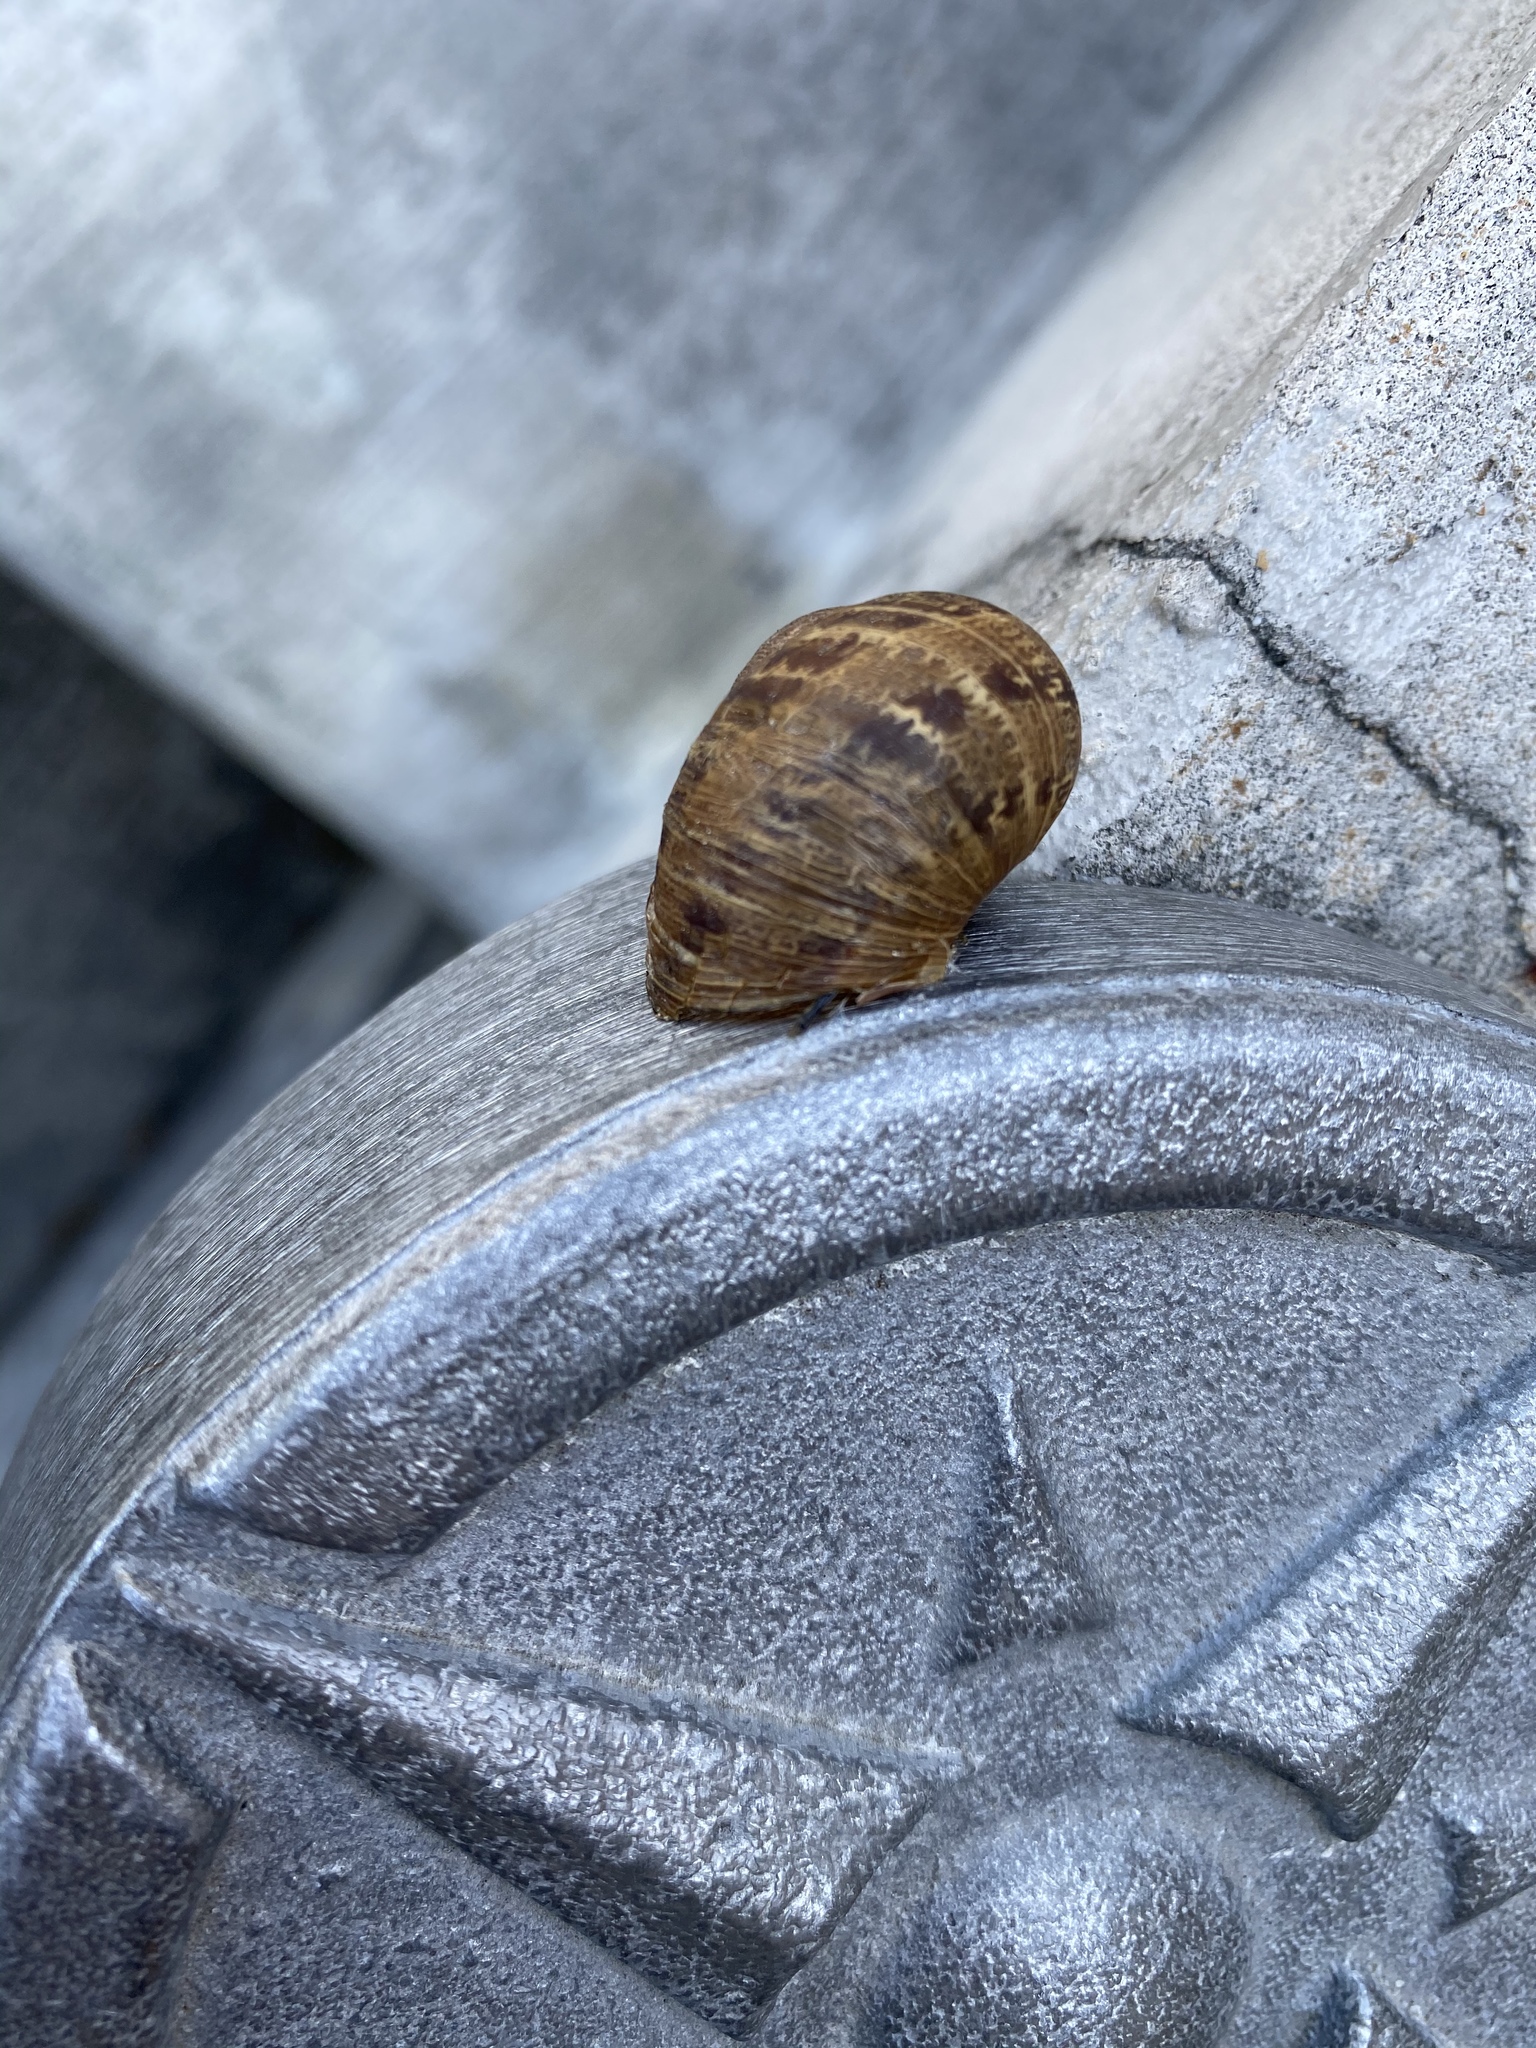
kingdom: Animalia
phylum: Mollusca
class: Gastropoda
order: Stylommatophora
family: Helicidae
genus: Cornu
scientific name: Cornu aspersum
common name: Brown garden snail
